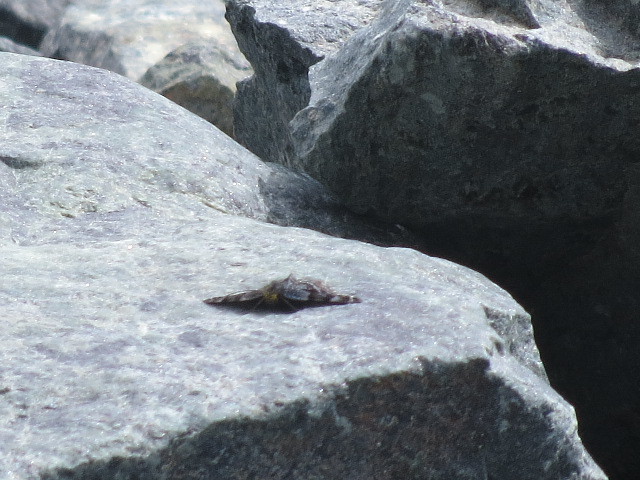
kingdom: Animalia
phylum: Arthropoda
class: Insecta
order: Lepidoptera
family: Geometridae
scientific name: Geometridae
